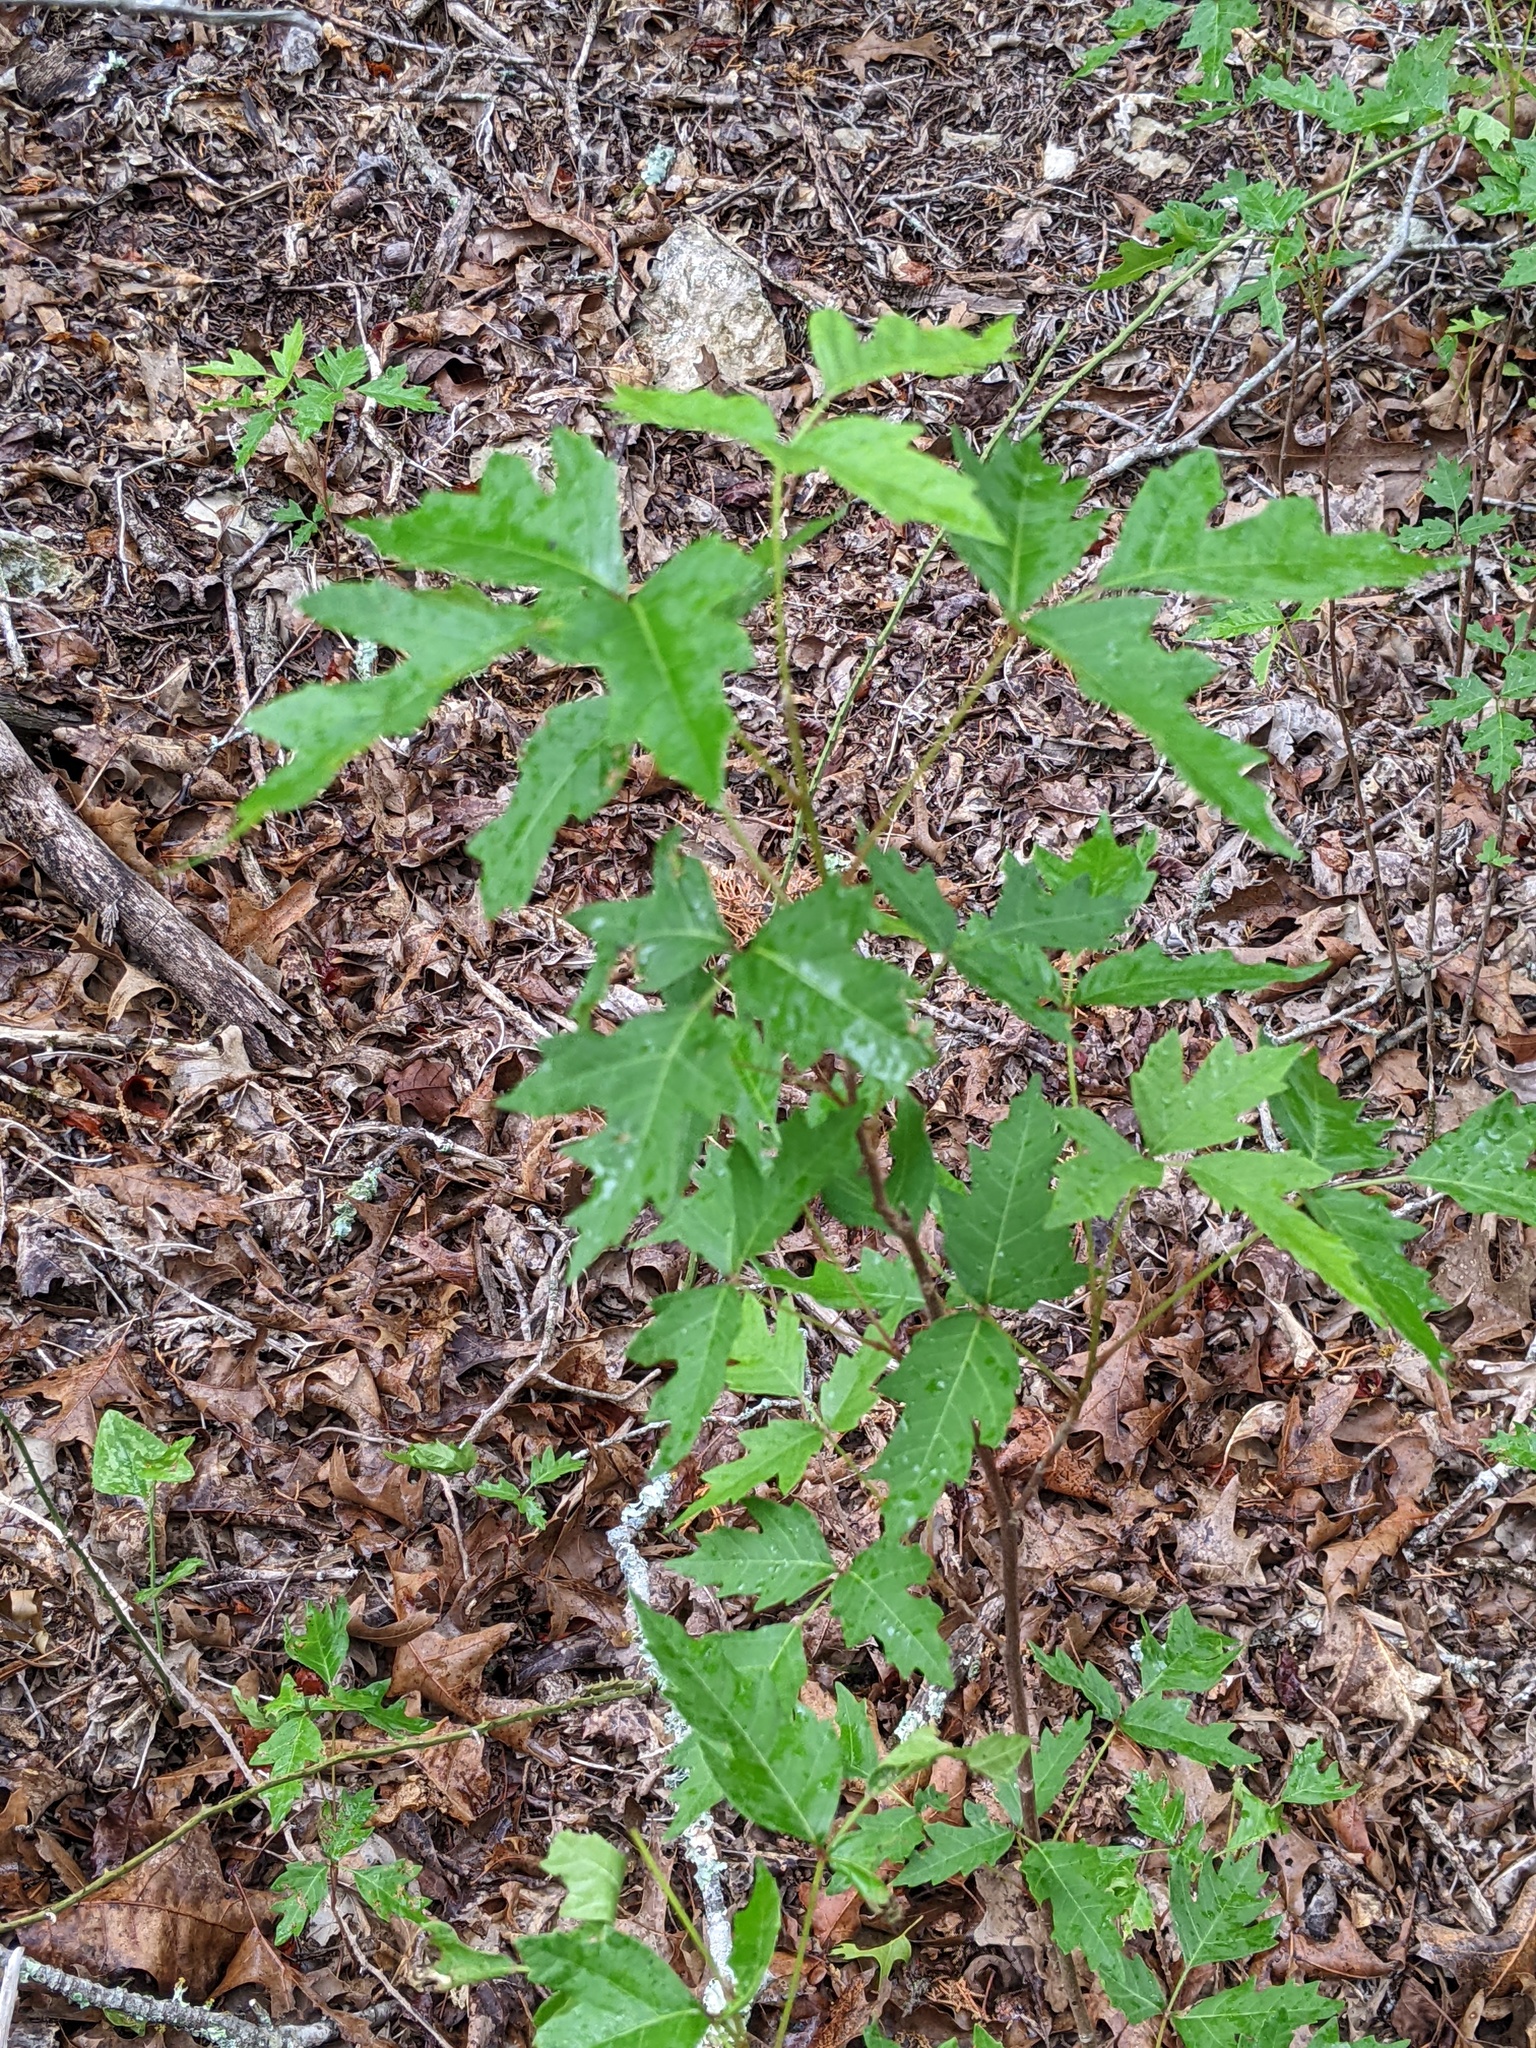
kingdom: Plantae
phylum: Tracheophyta
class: Magnoliopsida
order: Sapindales
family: Anacardiaceae
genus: Toxicodendron
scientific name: Toxicodendron pubescens
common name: Eastern poison-oak
